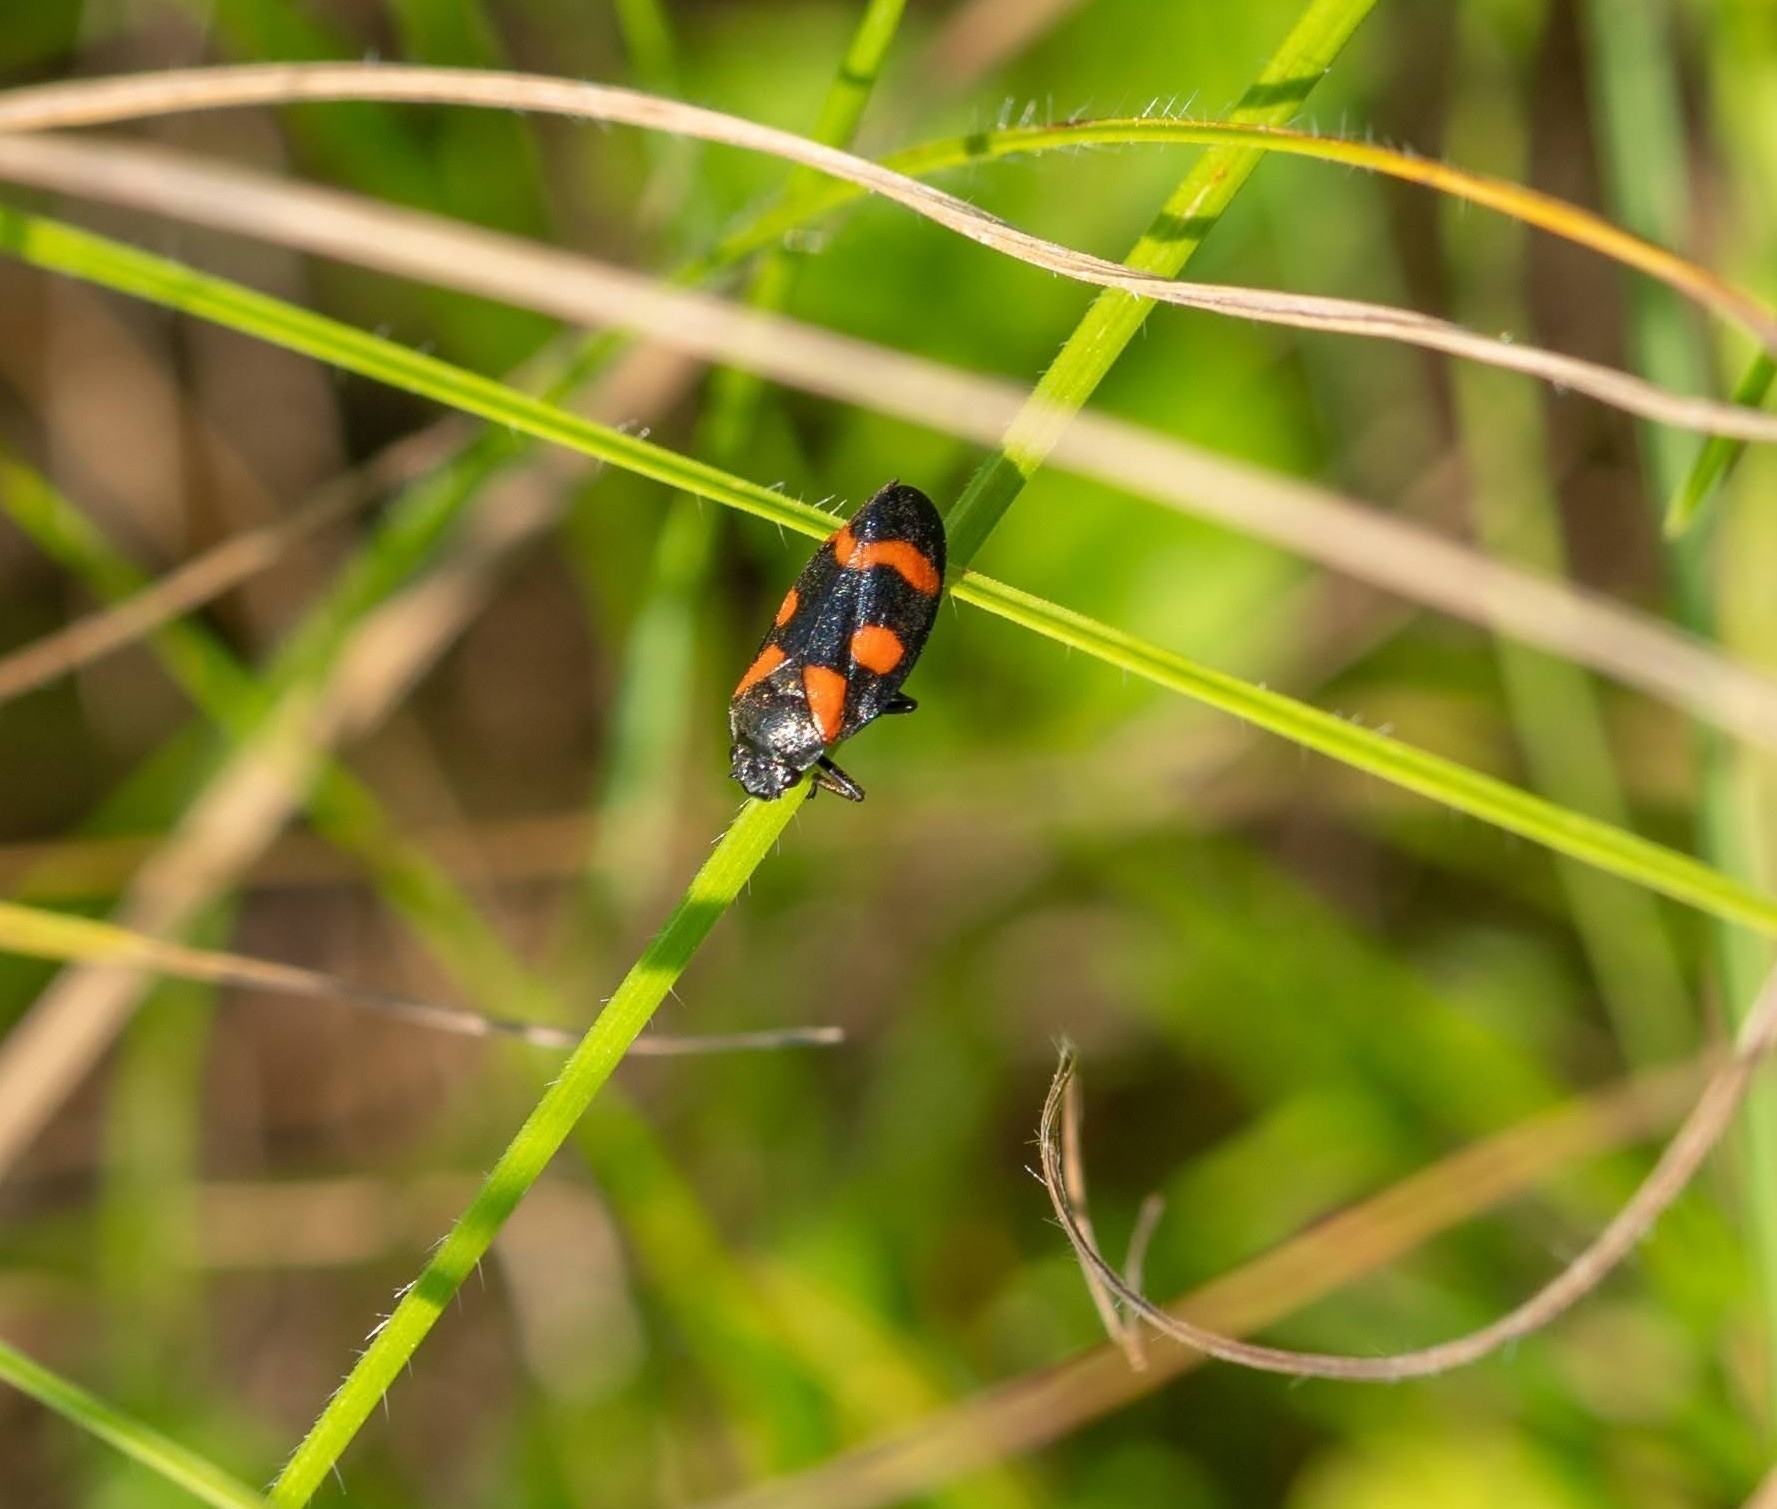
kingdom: Animalia
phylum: Arthropoda
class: Insecta
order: Hemiptera
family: Cercopidae
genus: Cercopis
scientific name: Cercopis sanguinolenta
